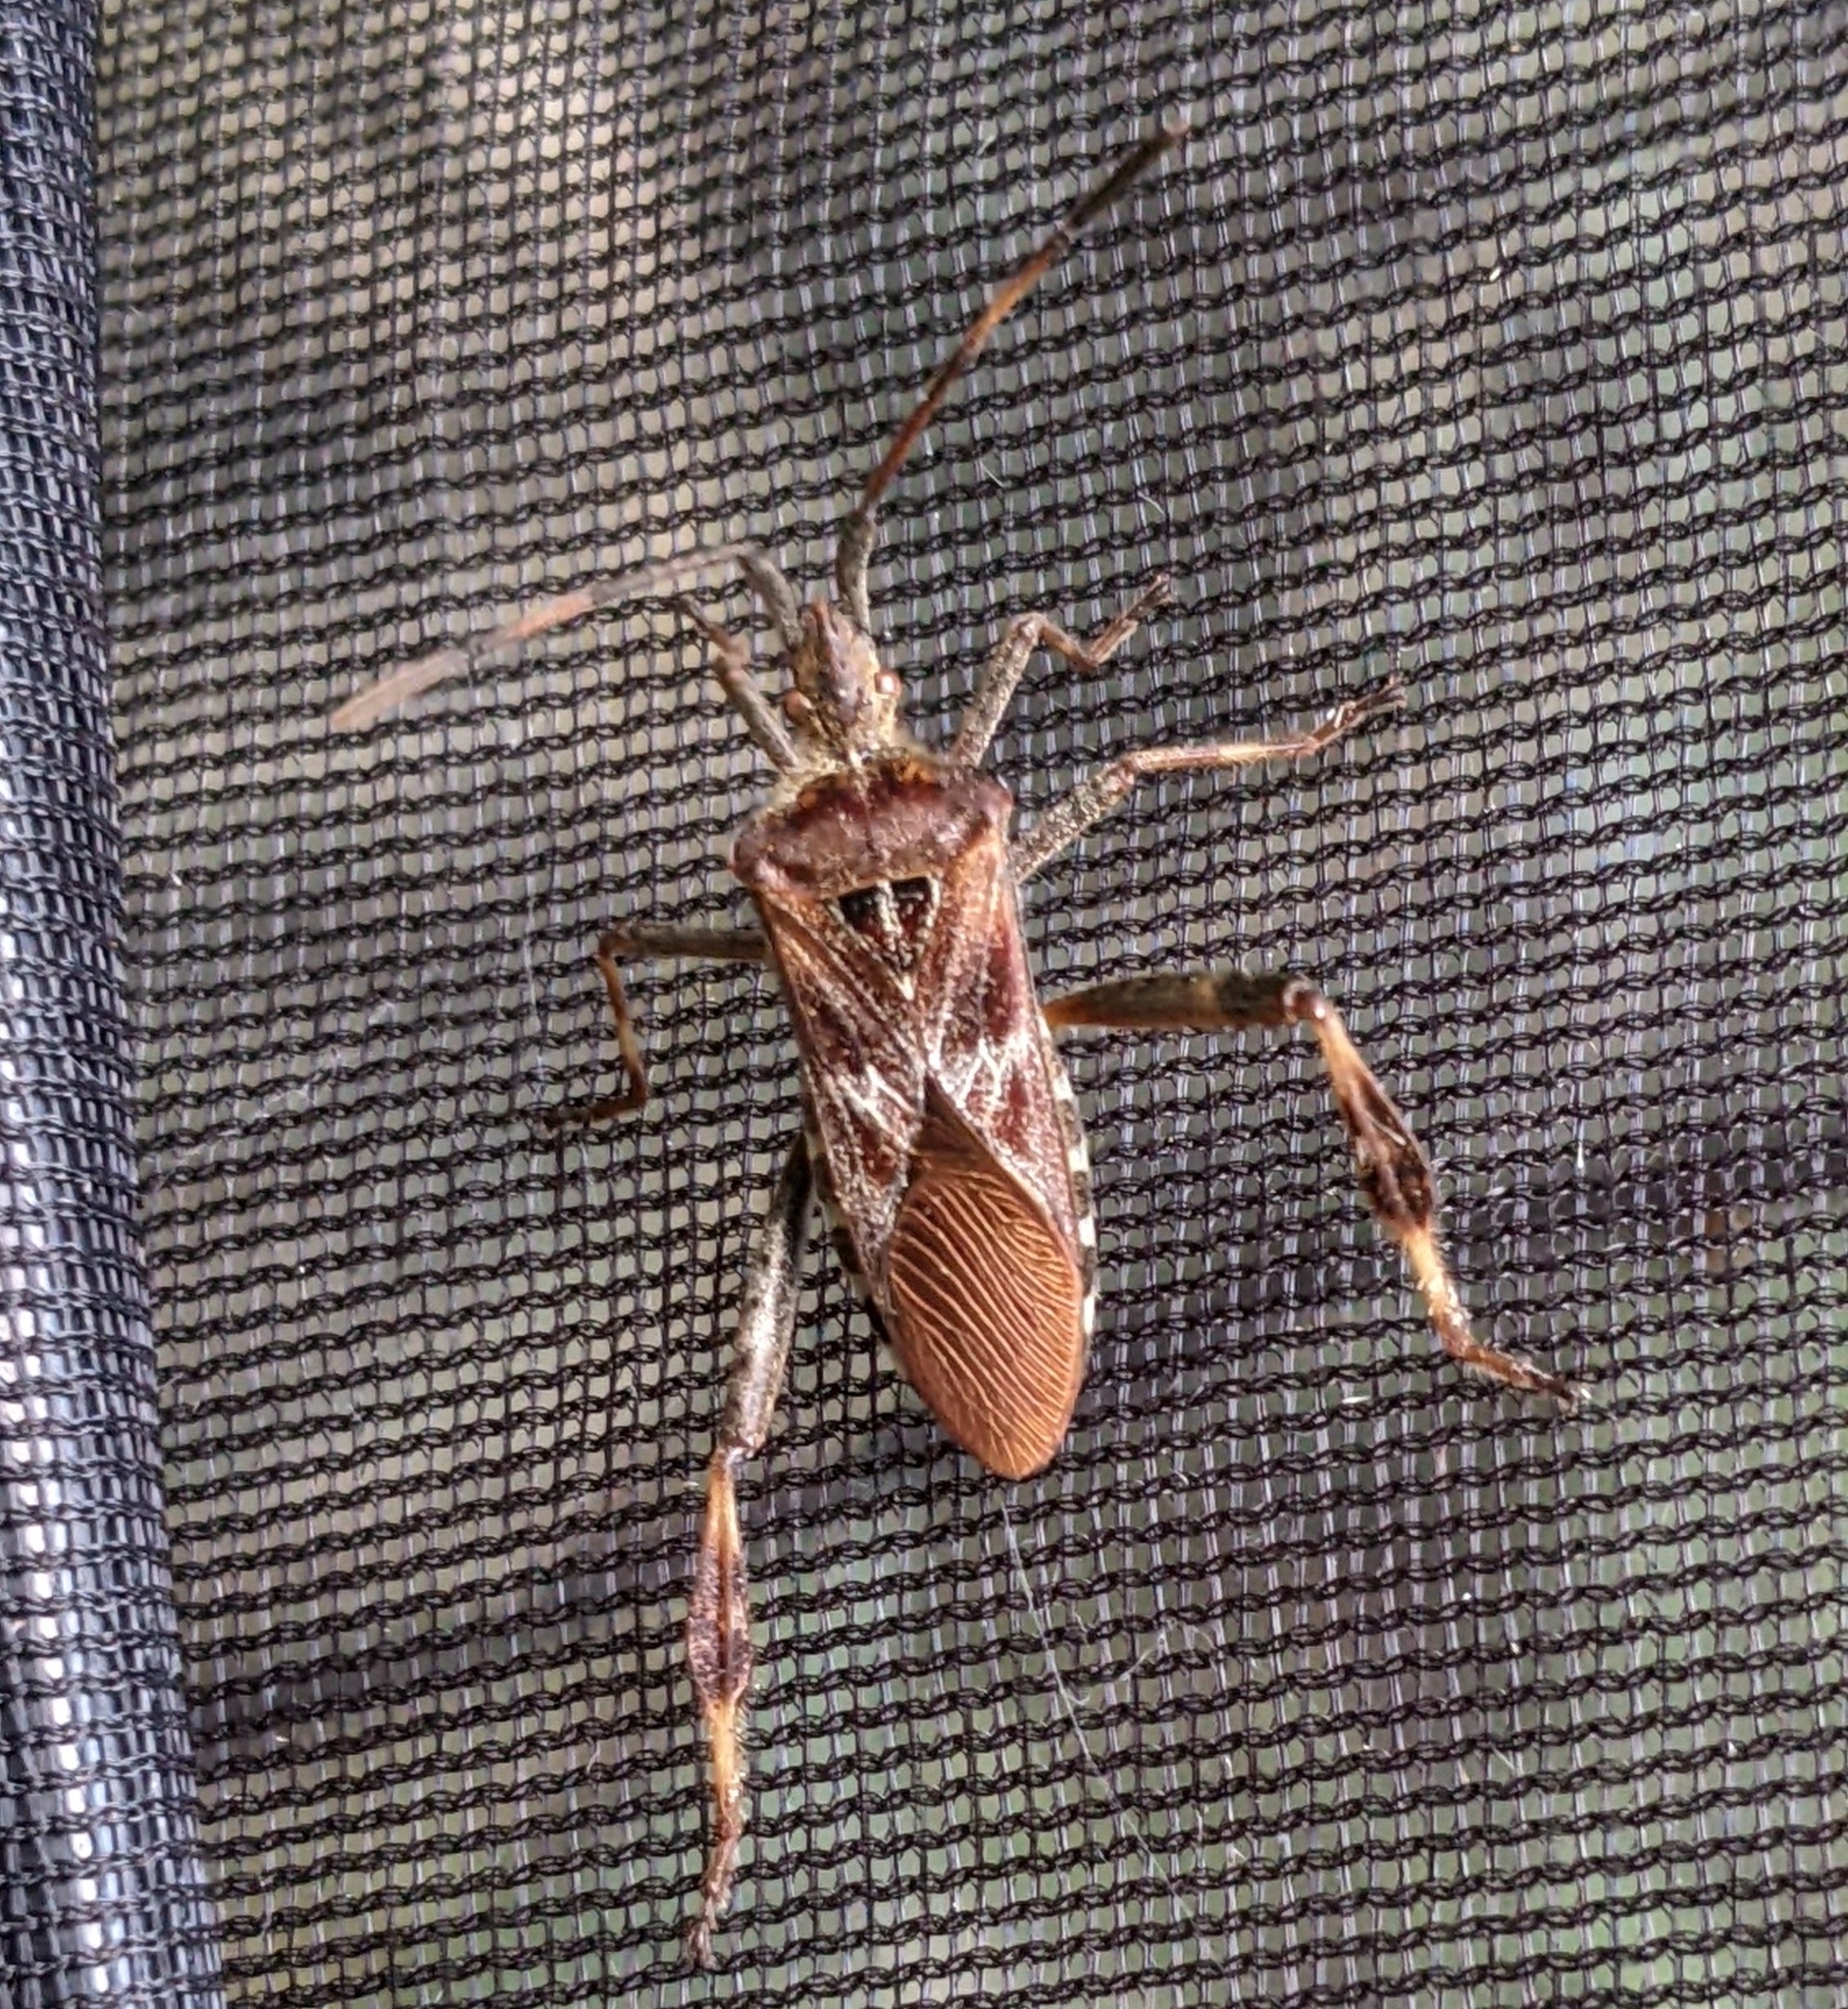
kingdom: Animalia
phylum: Arthropoda
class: Insecta
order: Hemiptera
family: Coreidae
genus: Leptoglossus
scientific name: Leptoglossus occidentalis
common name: Western conifer-seed bug
